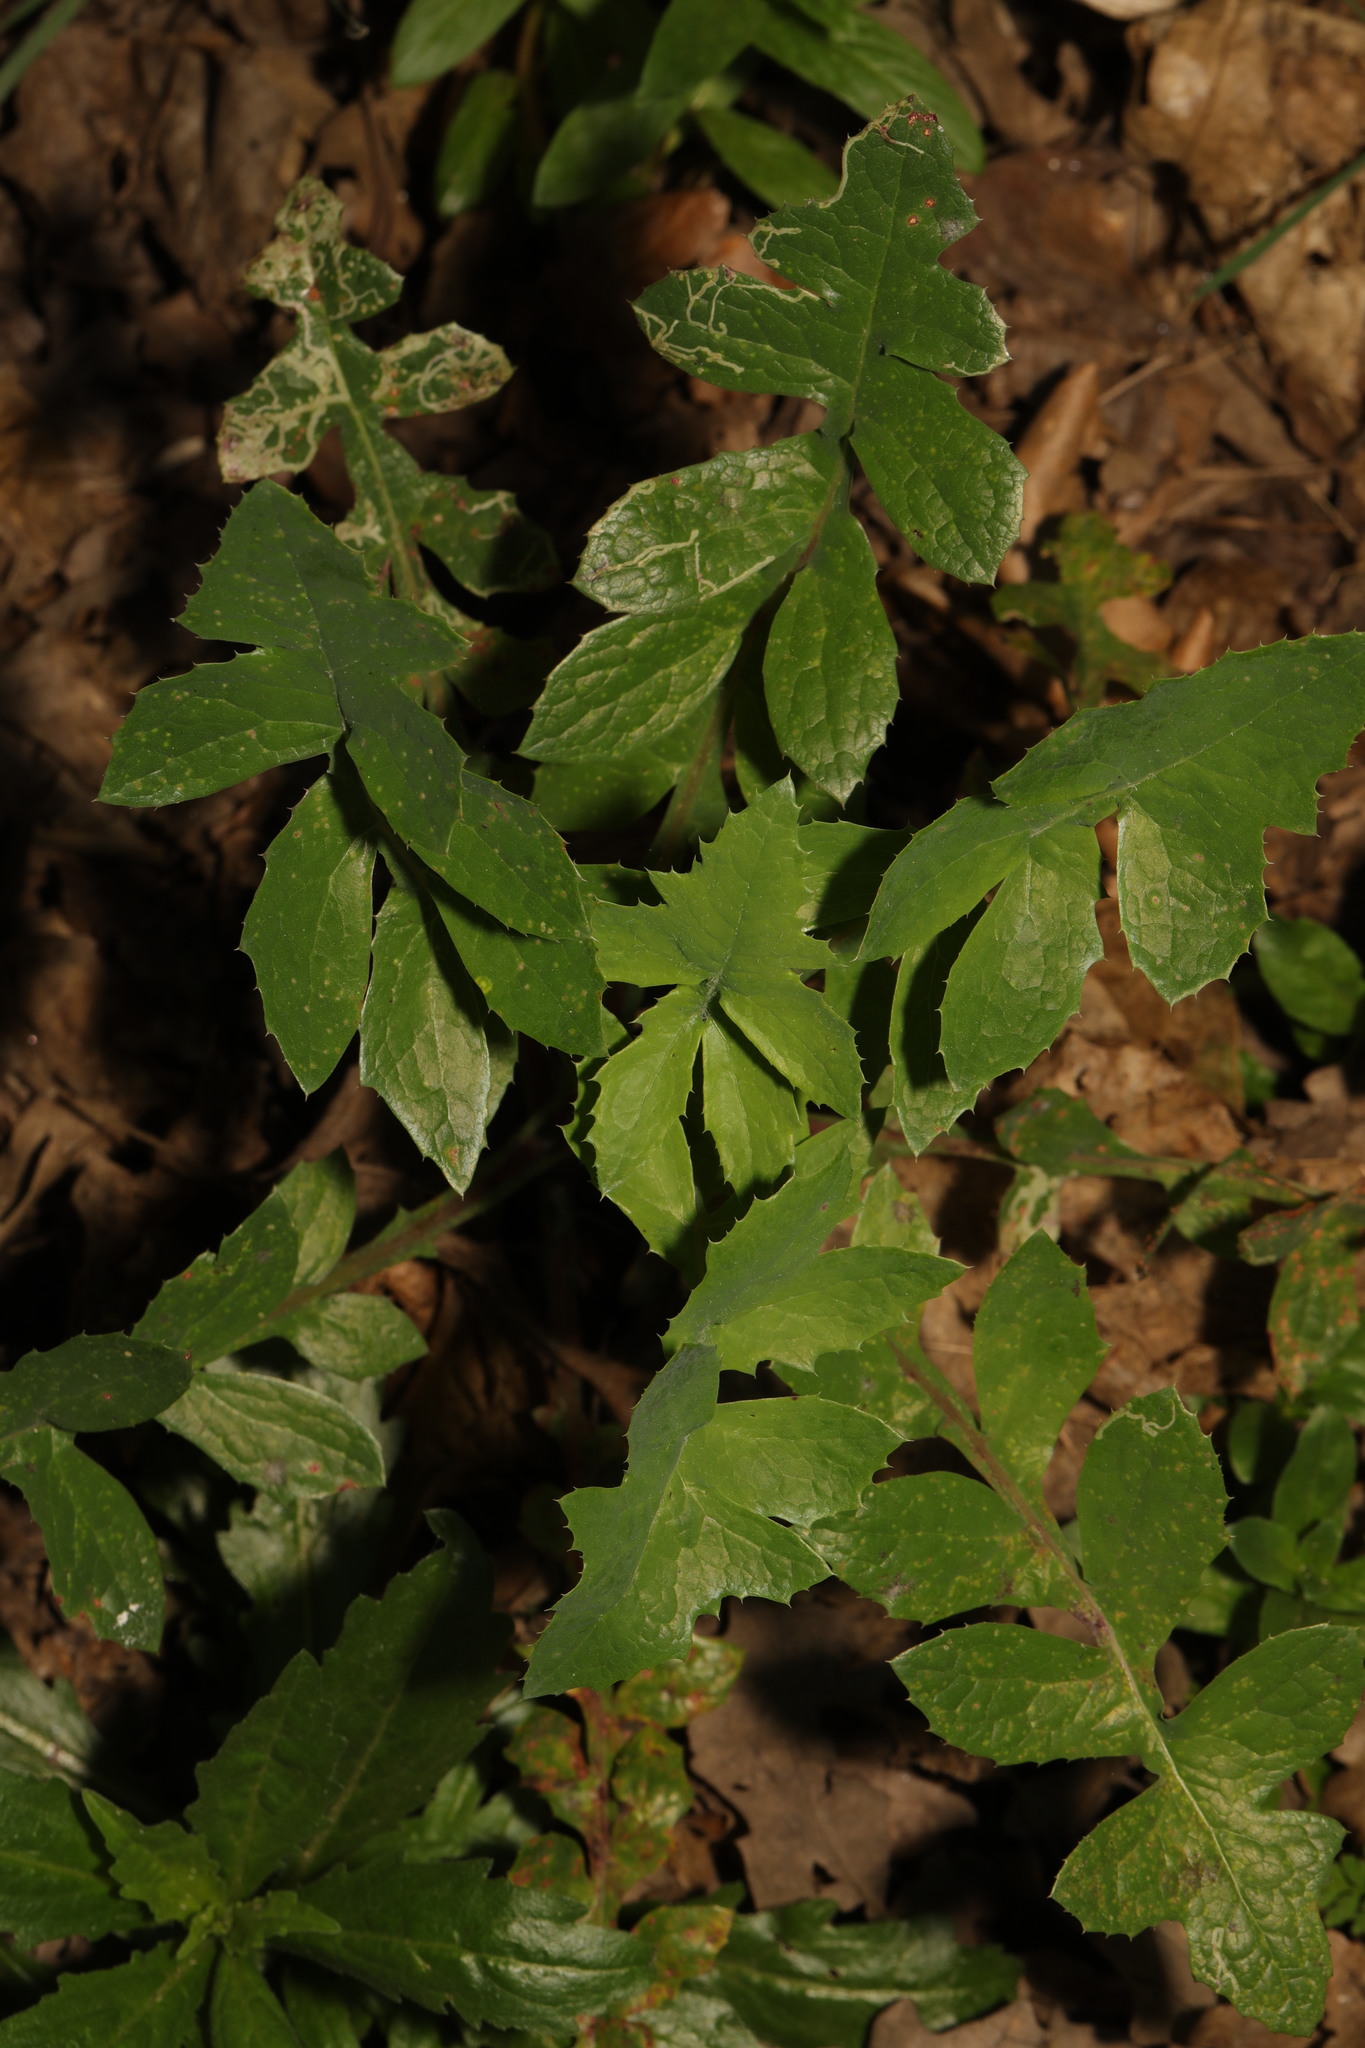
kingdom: Plantae
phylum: Tracheophyta
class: Magnoliopsida
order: Asterales
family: Asteraceae
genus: Sonchus
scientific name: Sonchus oleraceus
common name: Common sowthistle
